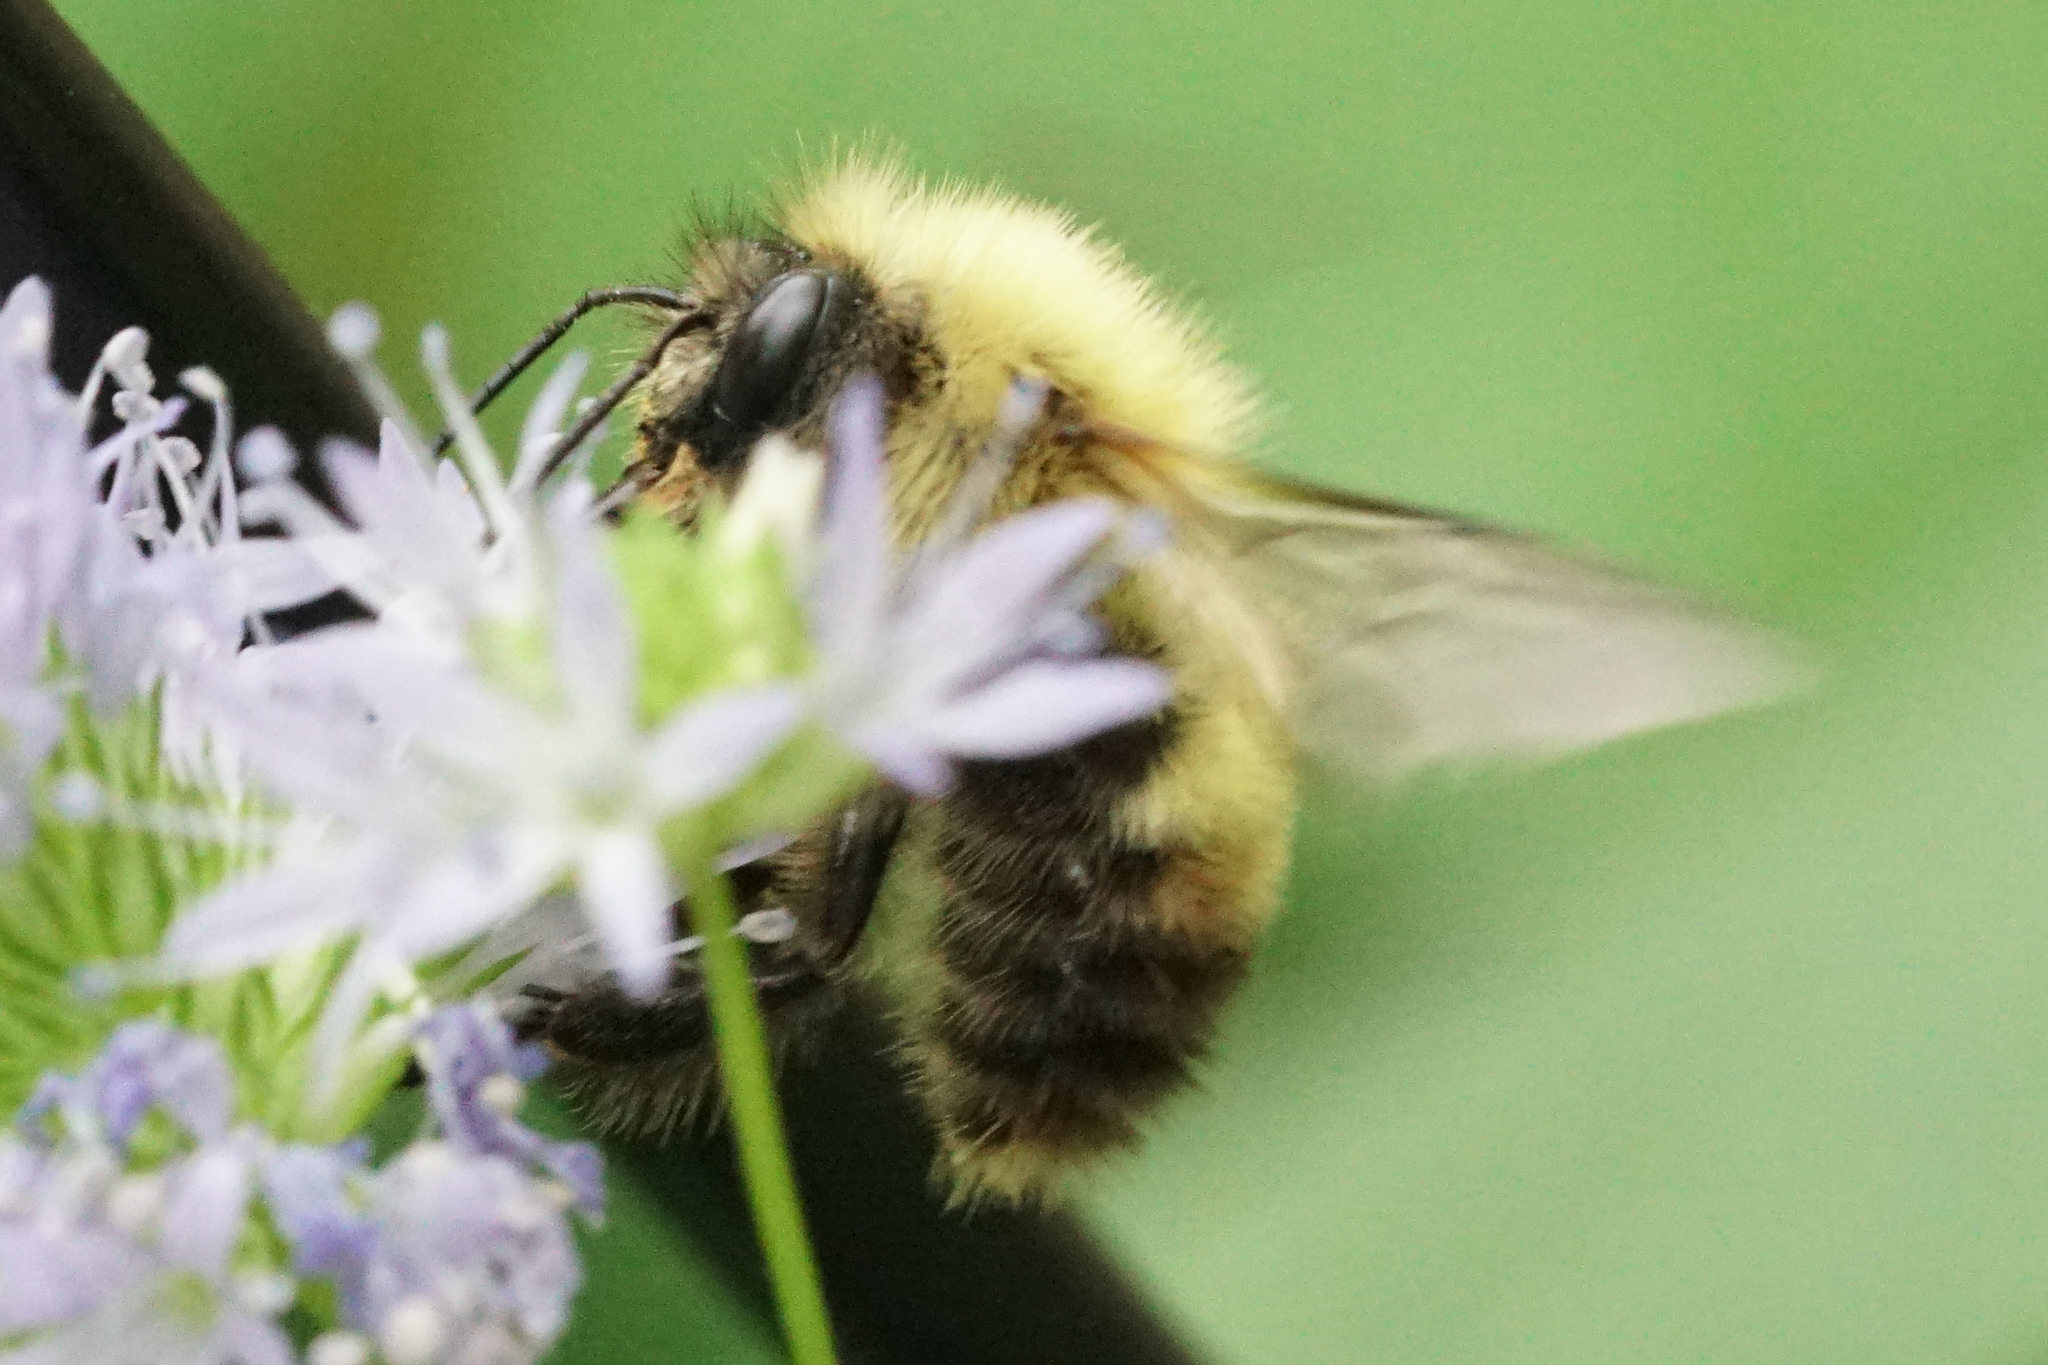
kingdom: Animalia
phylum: Arthropoda
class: Insecta
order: Hymenoptera
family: Apidae
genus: Bombus
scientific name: Bombus perplexus
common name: Confusing bumble bee
